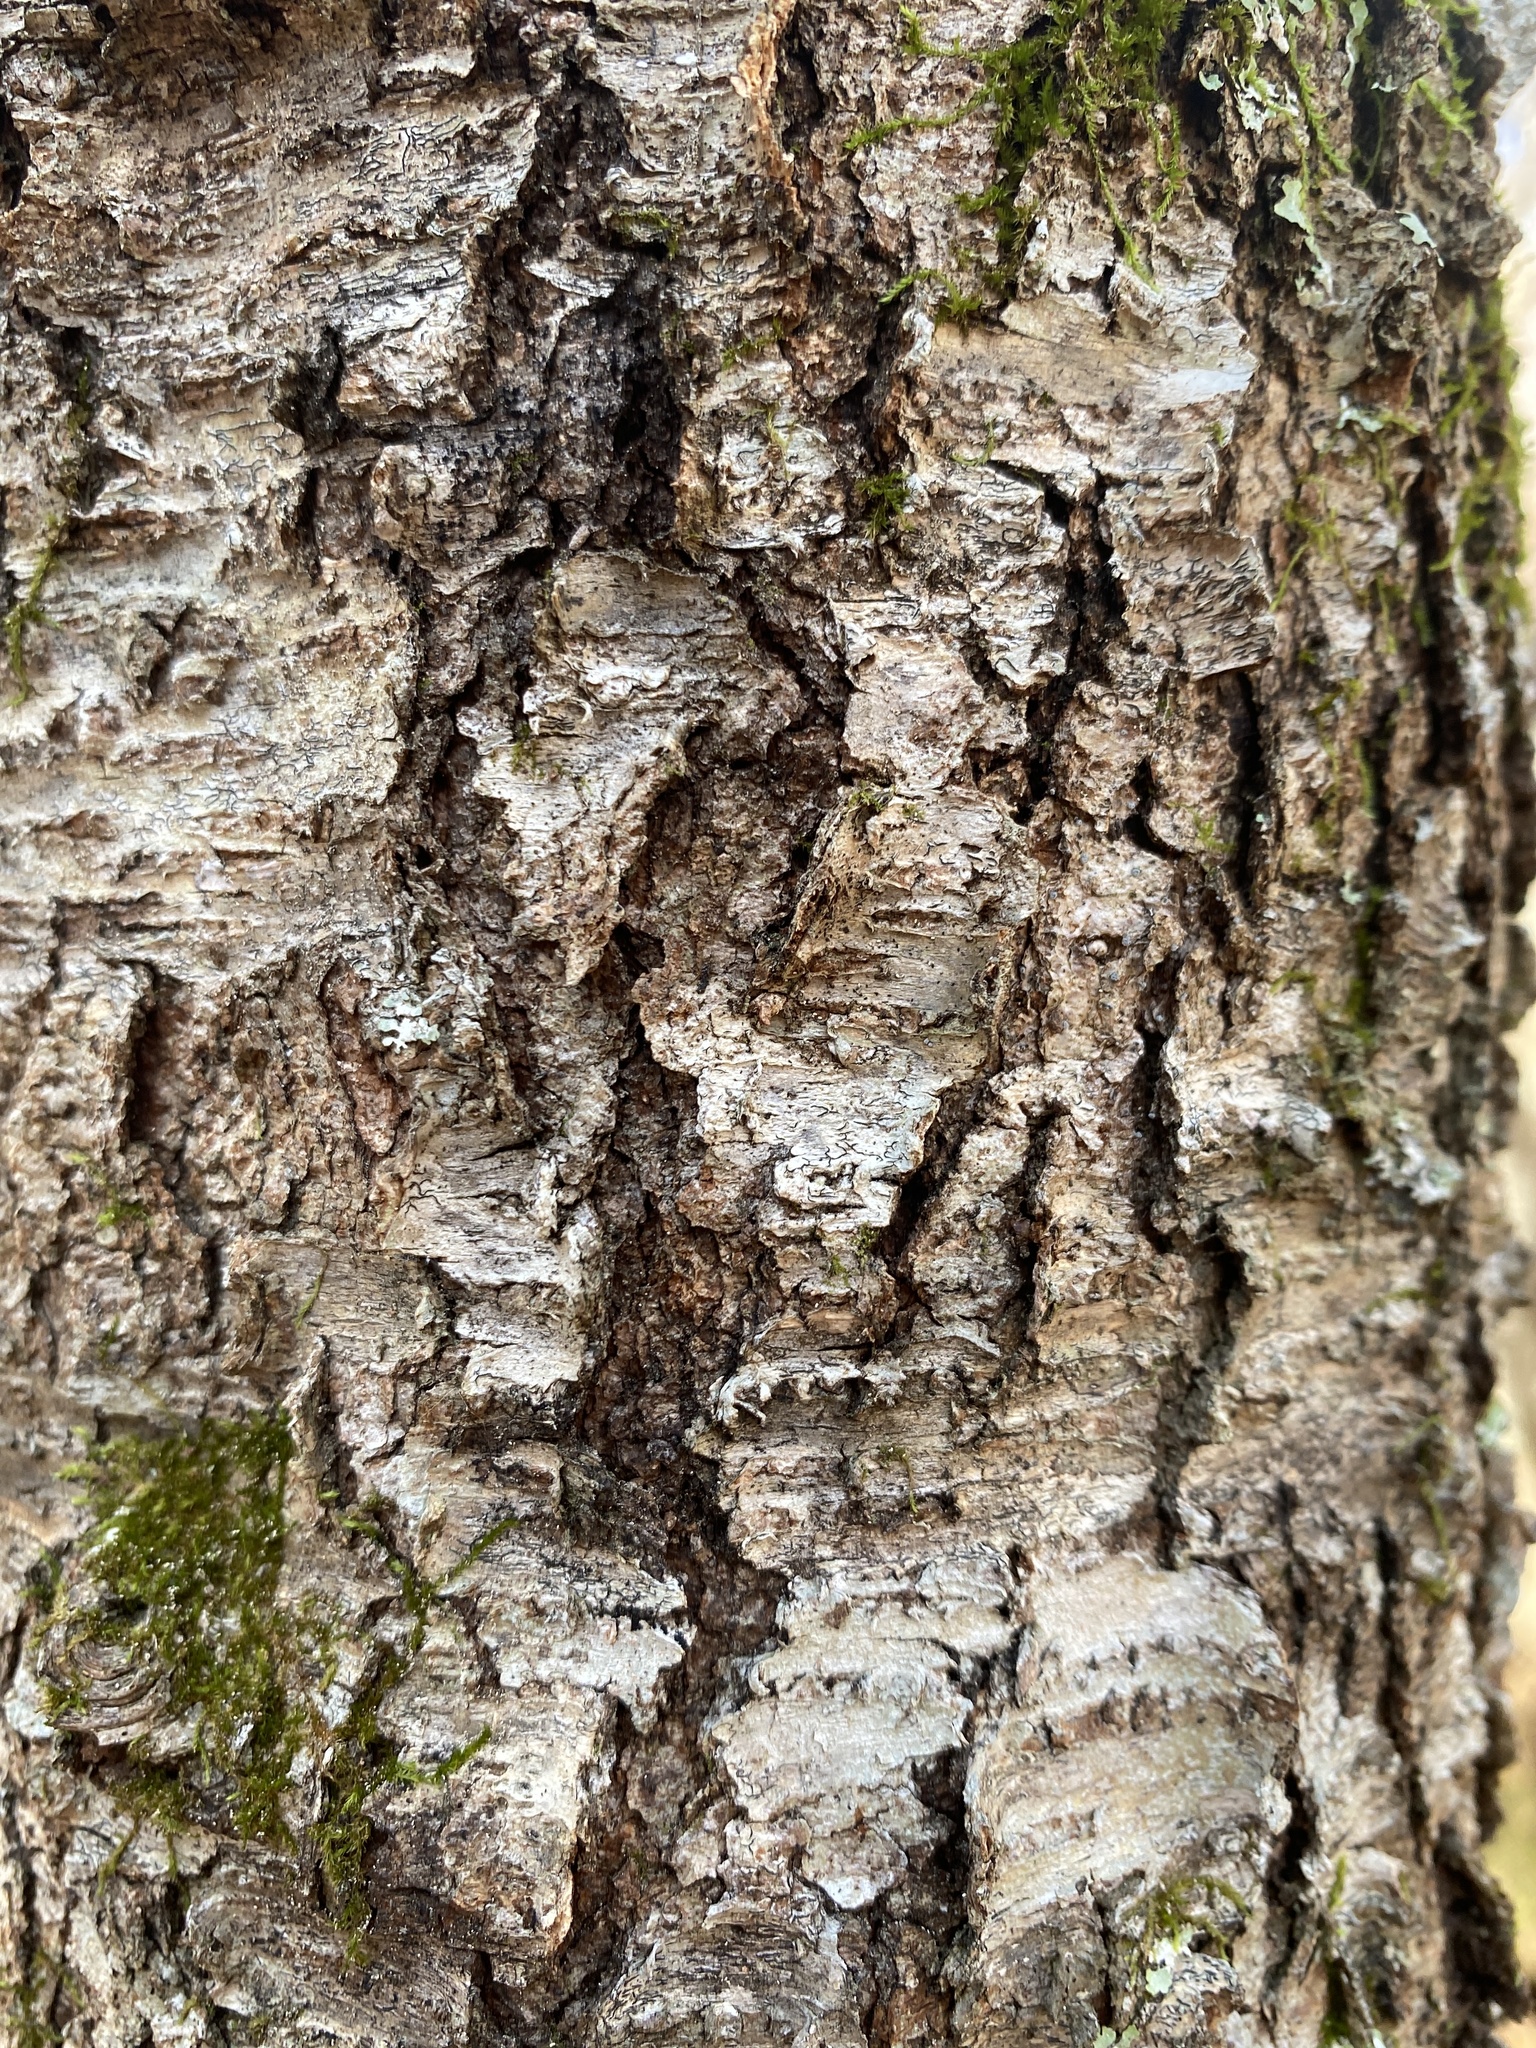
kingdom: Plantae
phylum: Tracheophyta
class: Magnoliopsida
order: Rosales
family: Rosaceae
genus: Prunus
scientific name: Prunus serotina
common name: Black cherry
